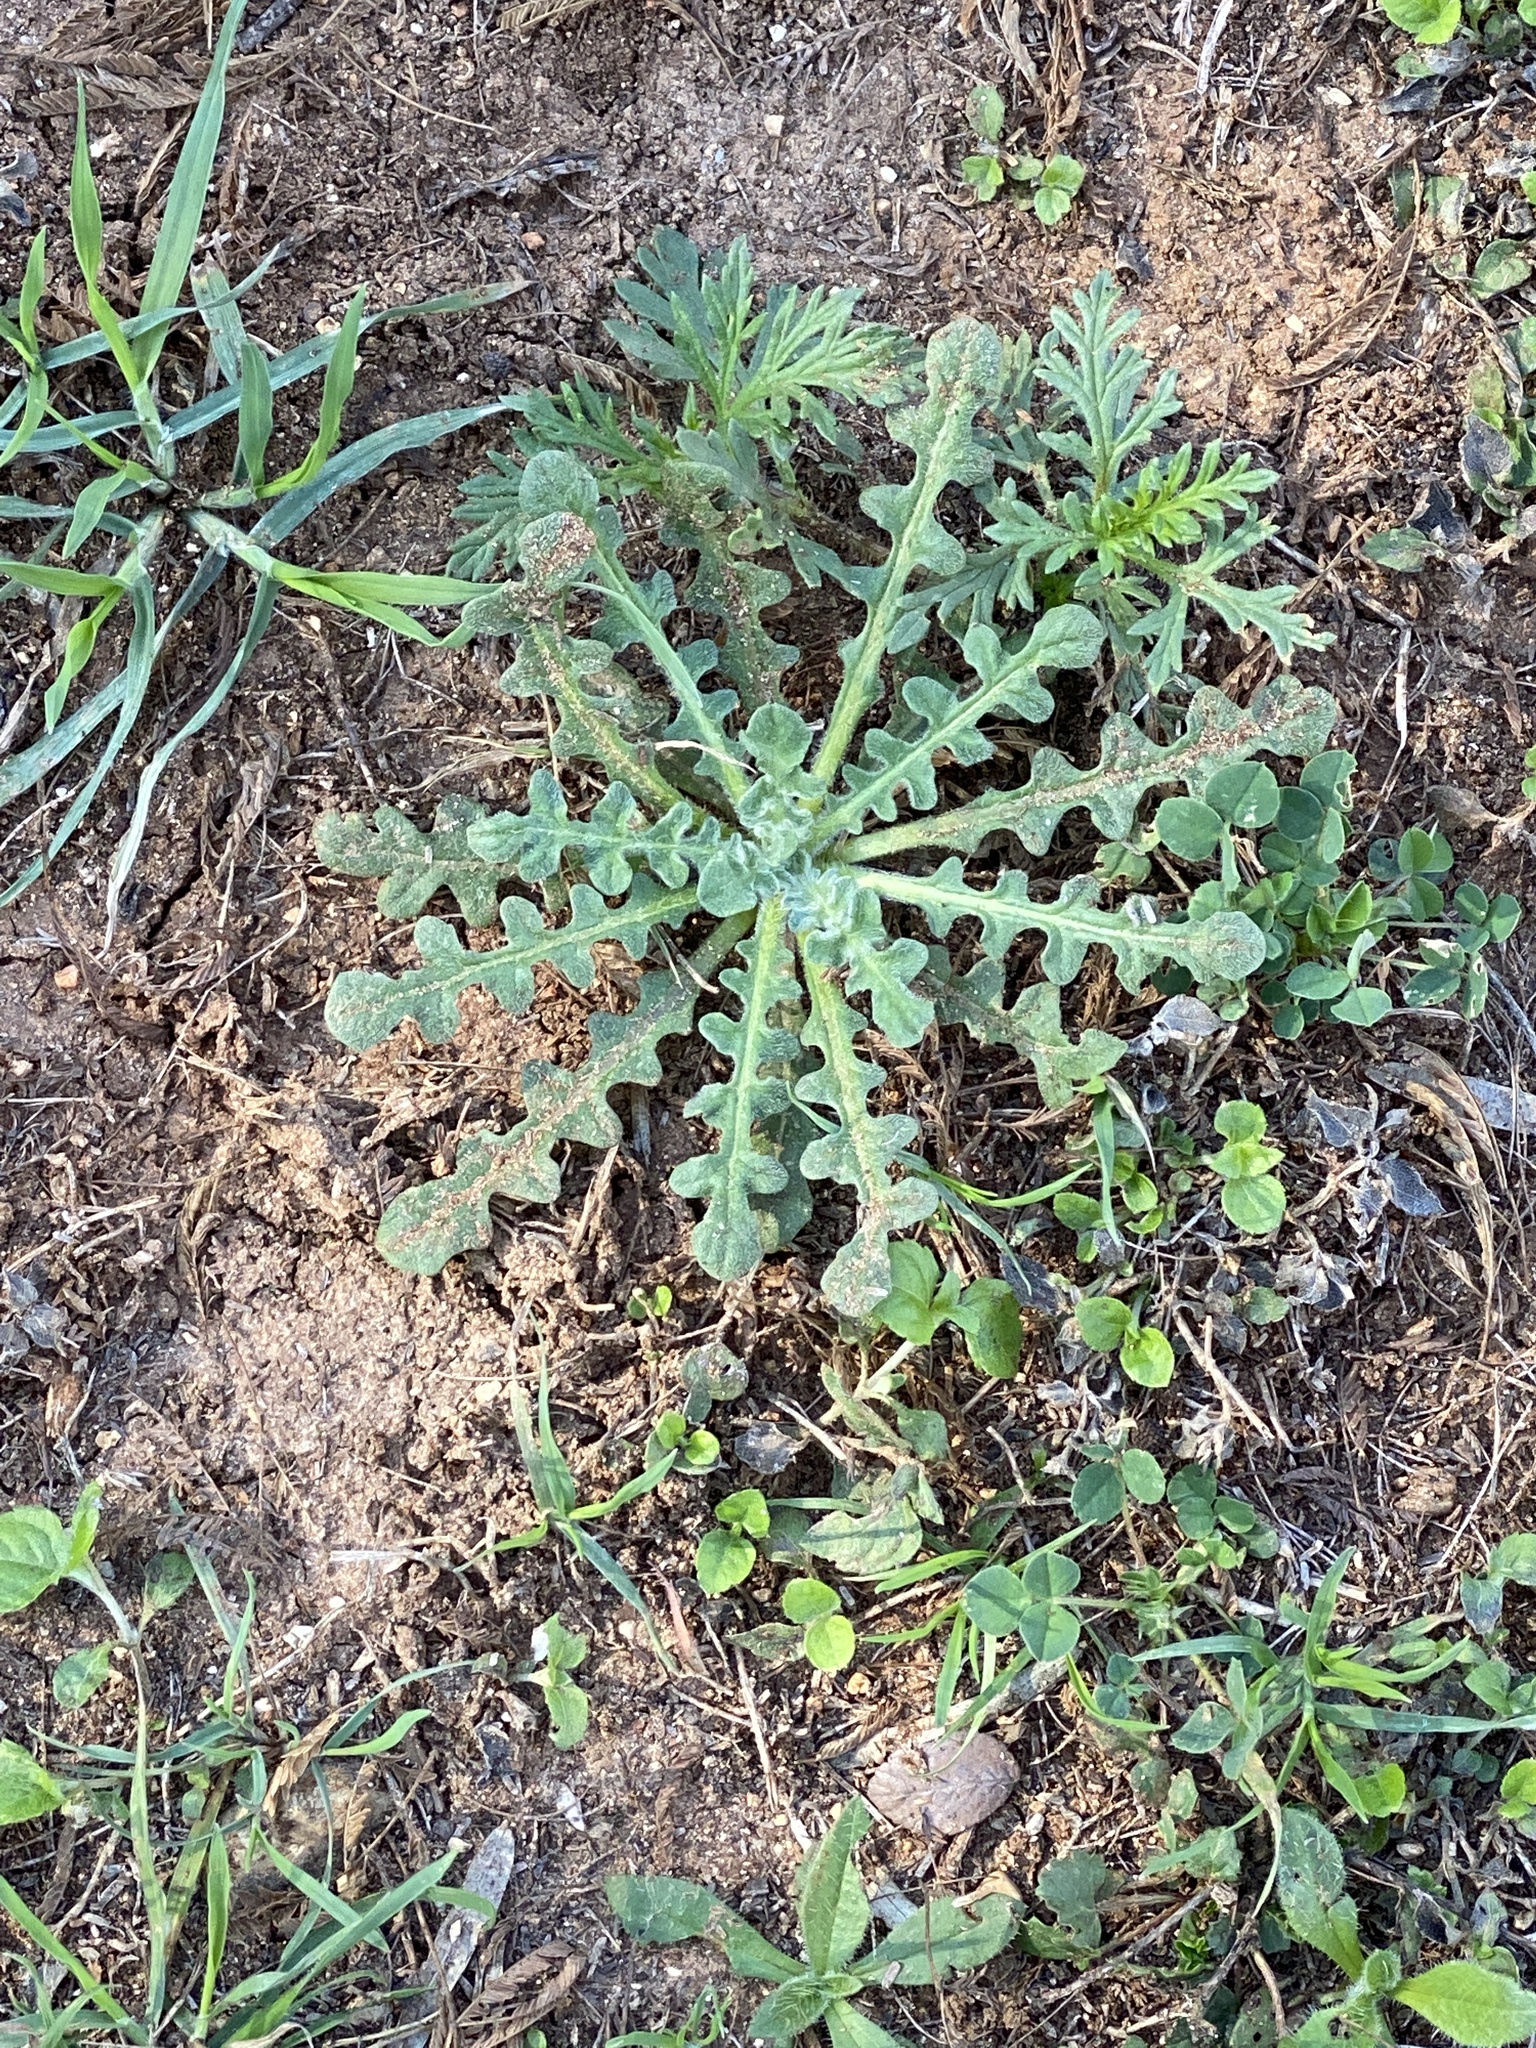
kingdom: Plantae
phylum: Tracheophyta
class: Magnoliopsida
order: Asterales
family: Asteraceae
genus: Centaurea
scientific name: Centaurea melitensis
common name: Maltese star-thistle
